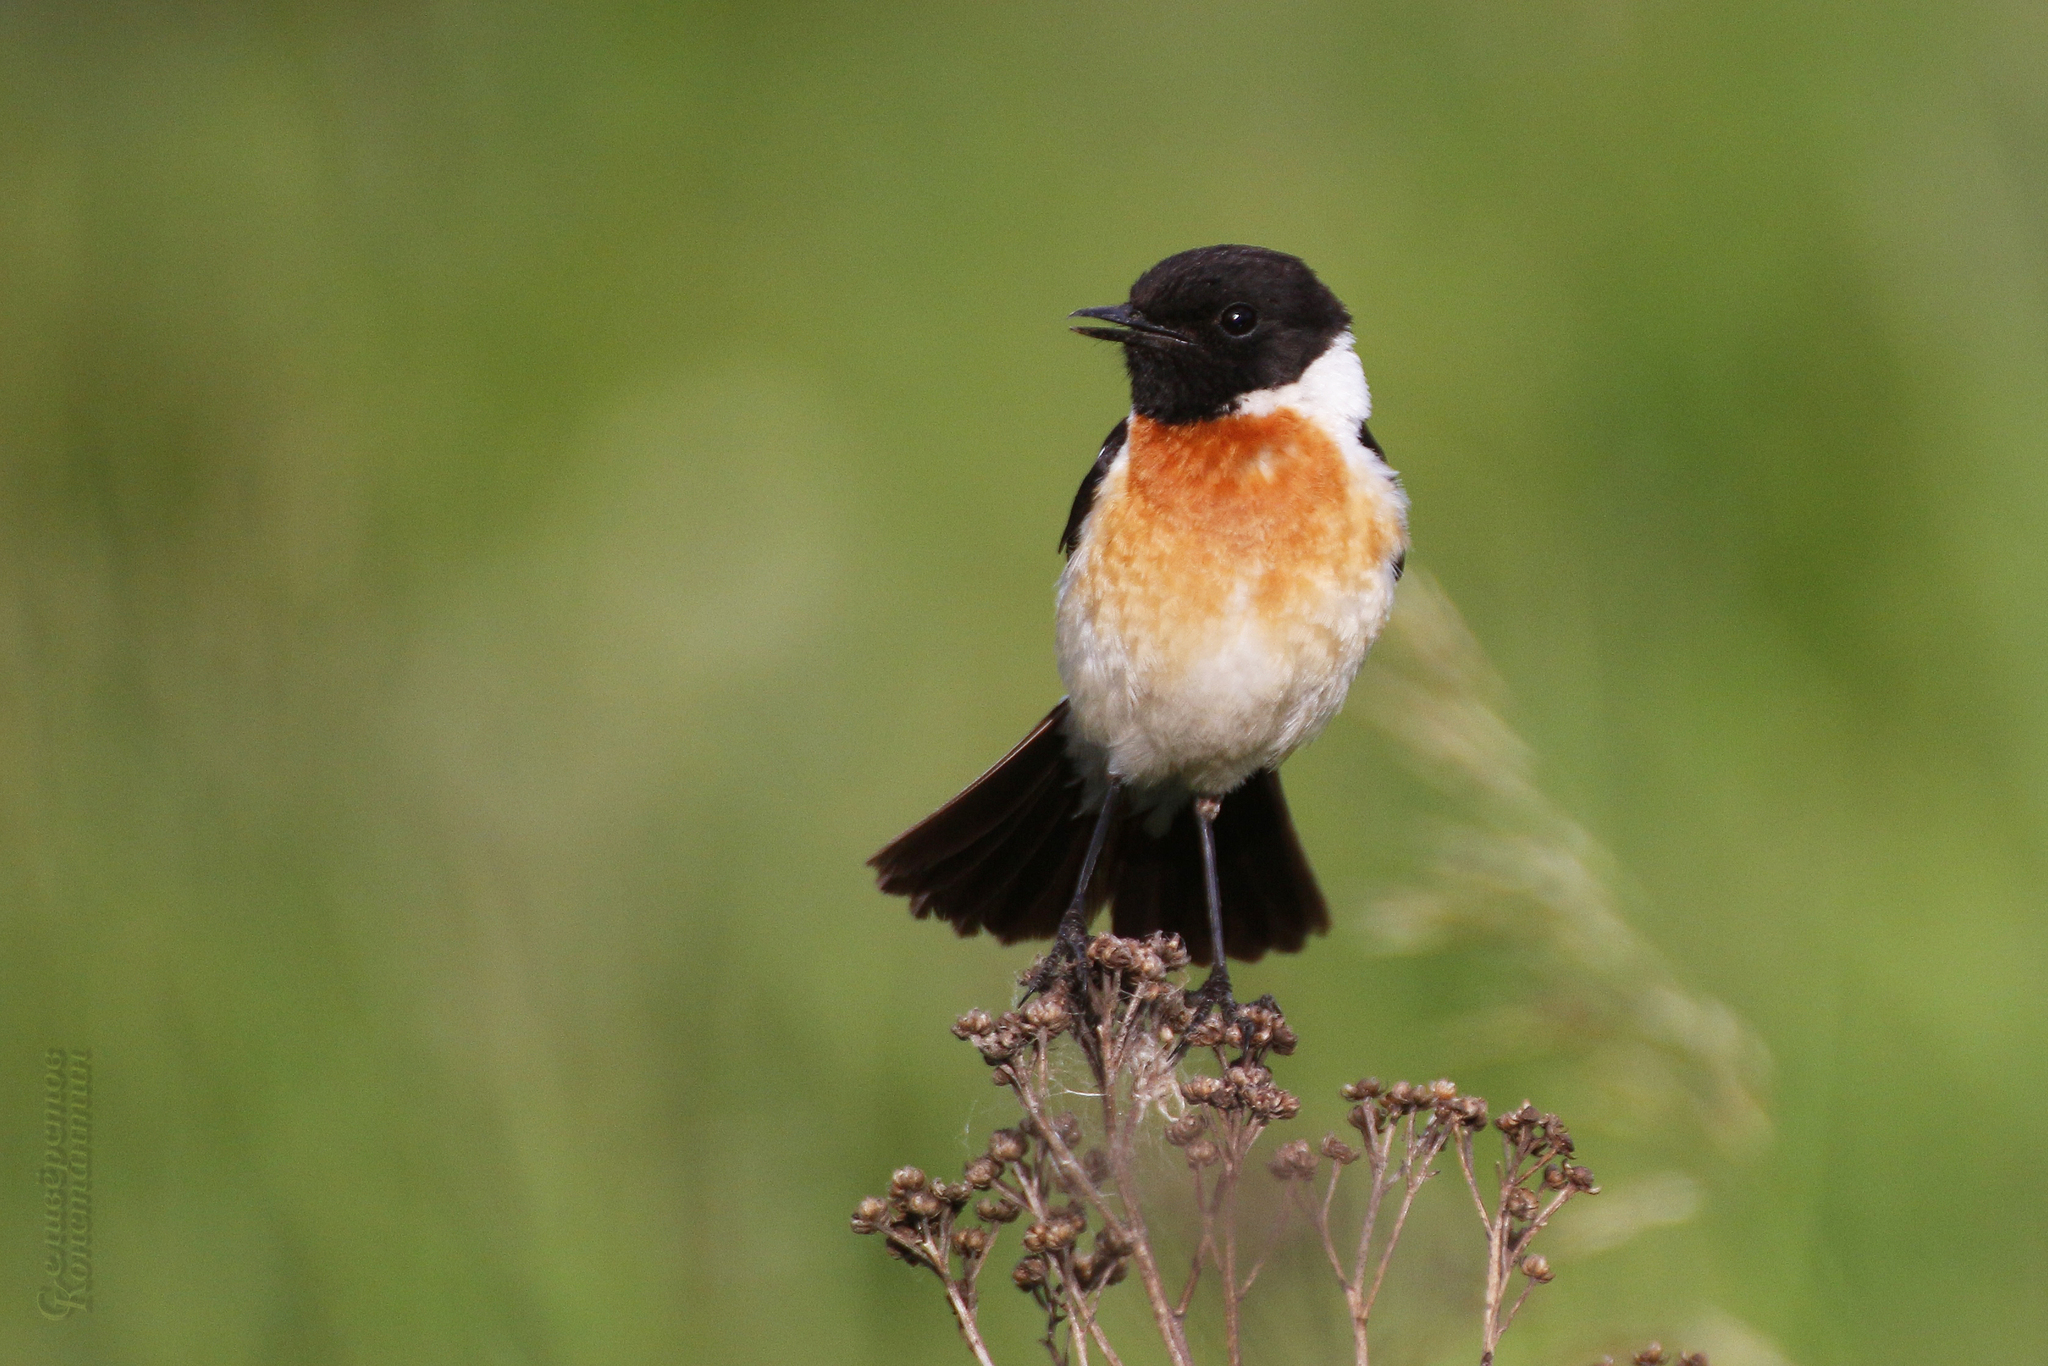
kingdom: Animalia
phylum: Chordata
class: Aves
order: Passeriformes
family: Muscicapidae
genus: Saxicola
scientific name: Saxicola maurus
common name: Siberian stonechat
